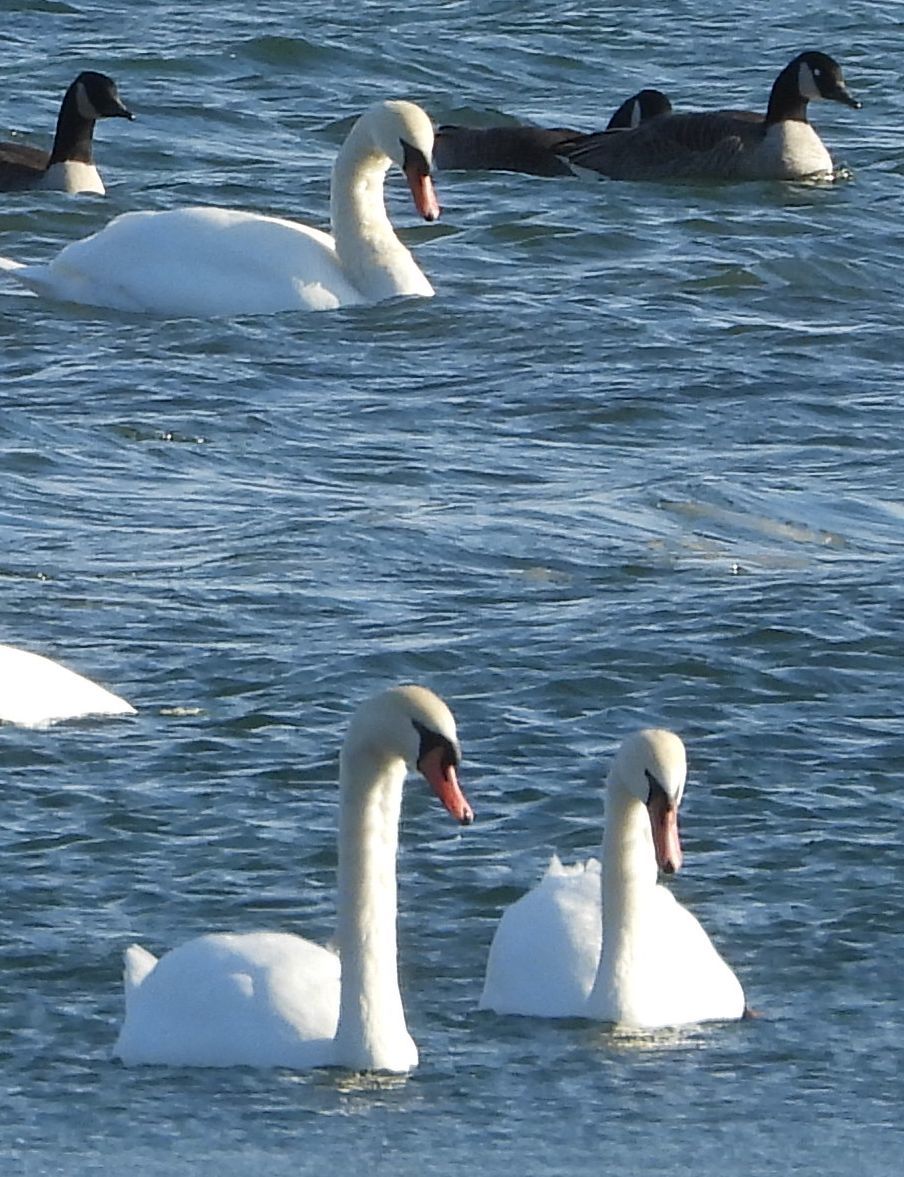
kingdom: Animalia
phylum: Chordata
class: Aves
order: Anseriformes
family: Anatidae
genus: Cygnus
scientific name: Cygnus olor
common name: Mute swan
